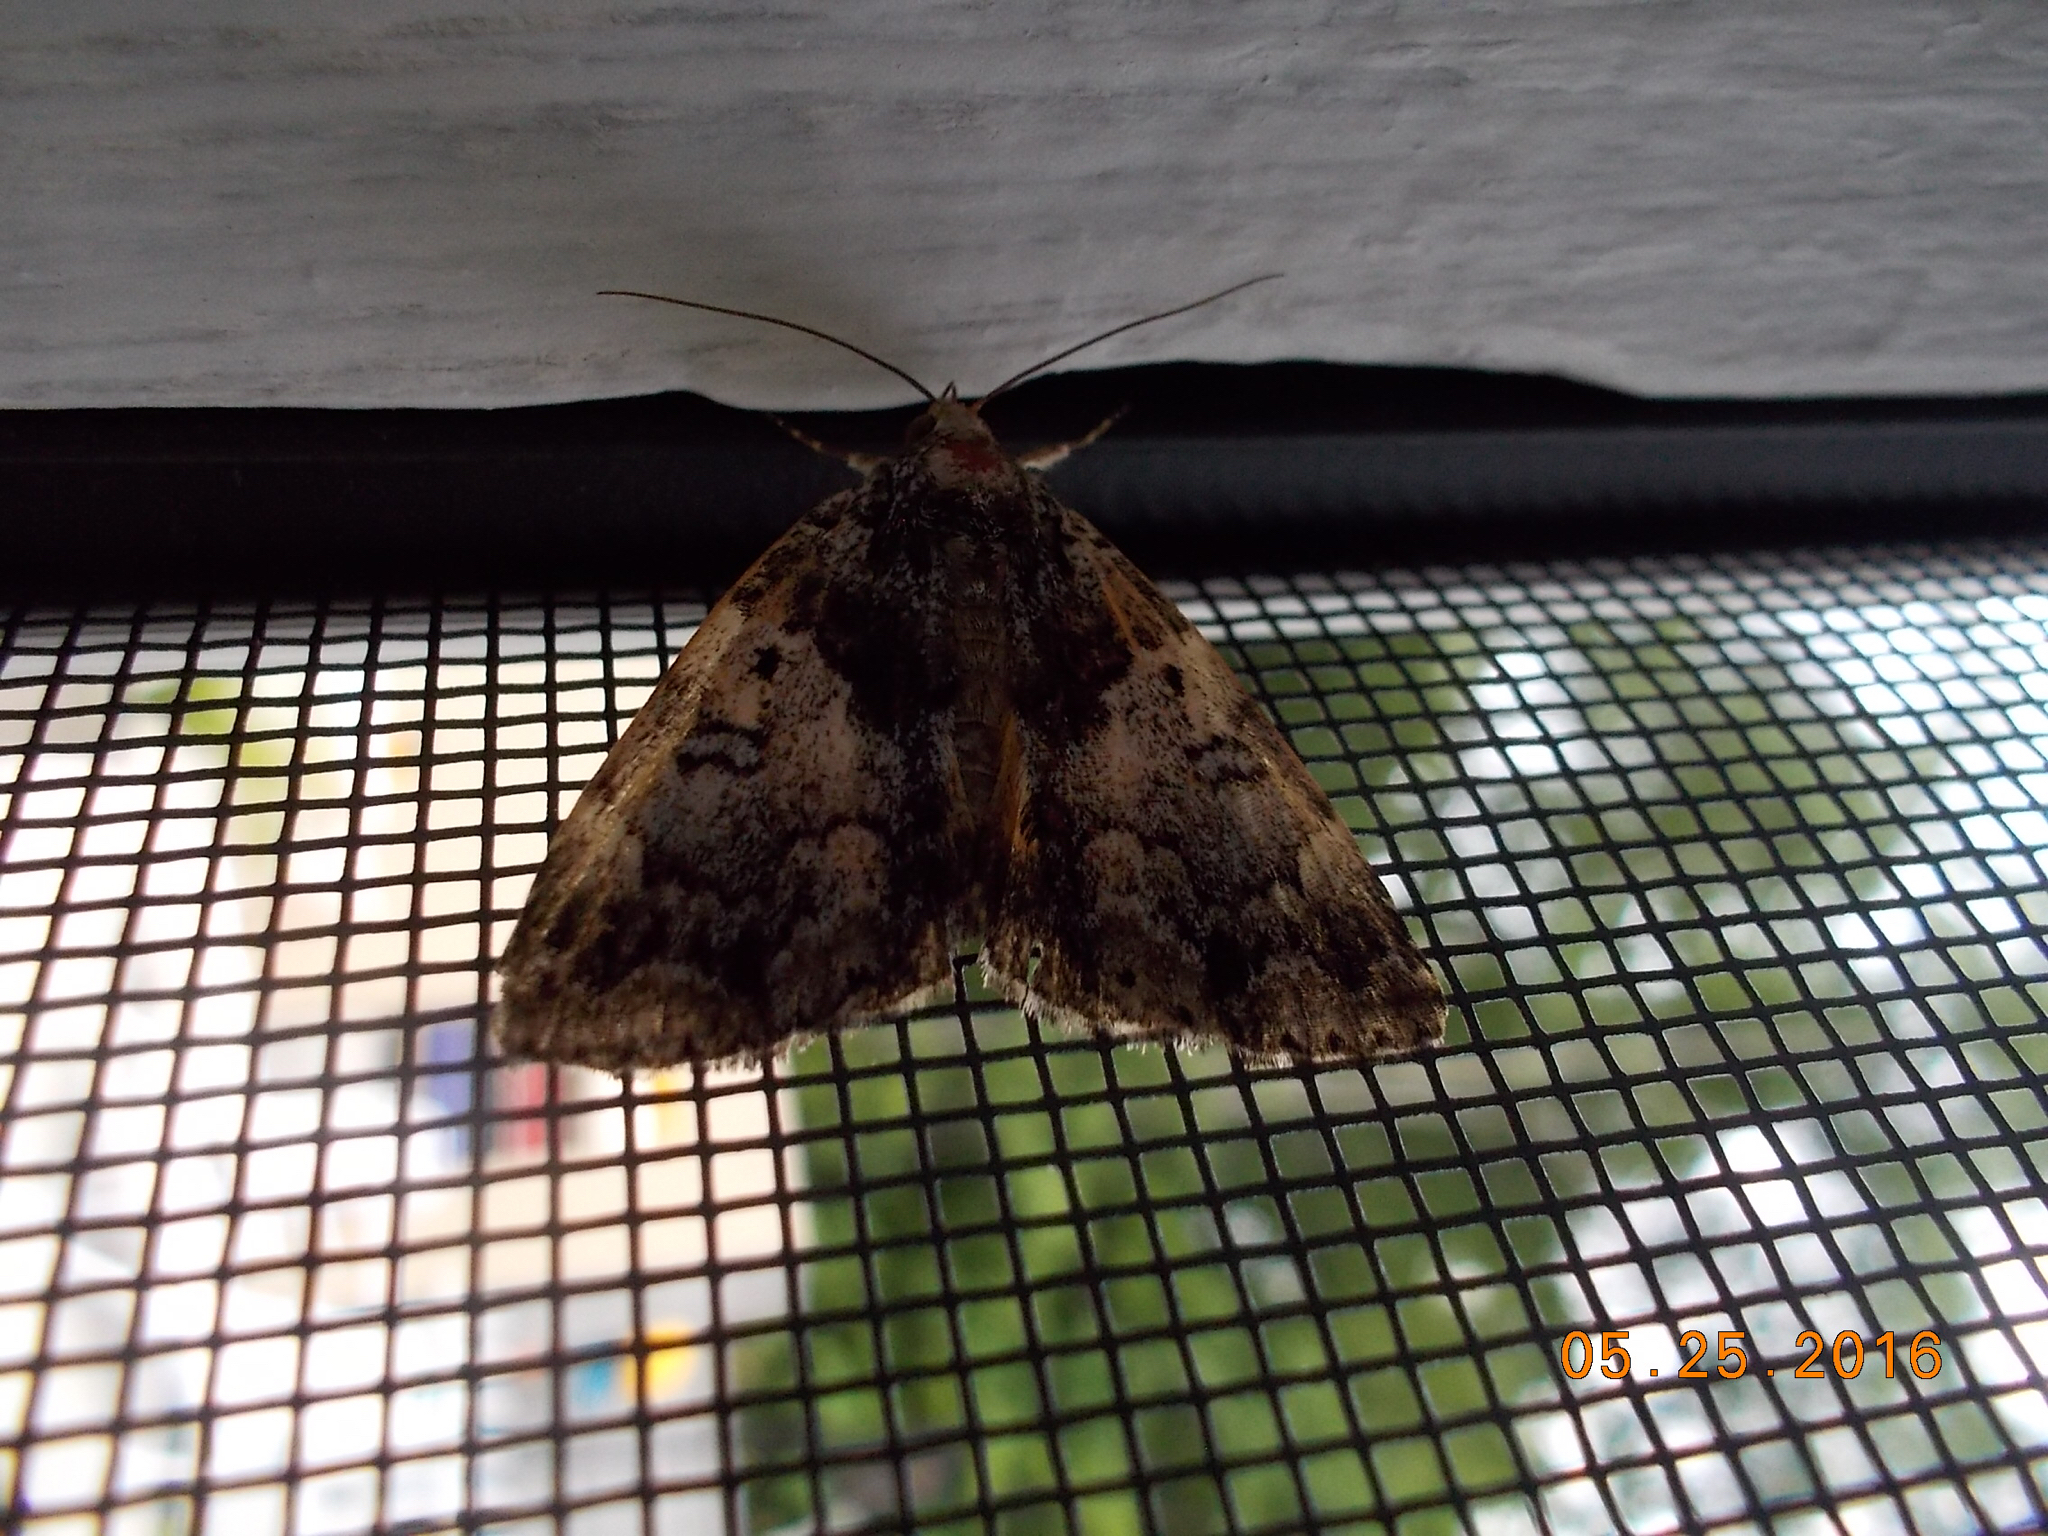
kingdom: Animalia
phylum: Arthropoda
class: Insecta
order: Lepidoptera
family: Erebidae
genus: Allotria
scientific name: Allotria elonympha
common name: False underwing
